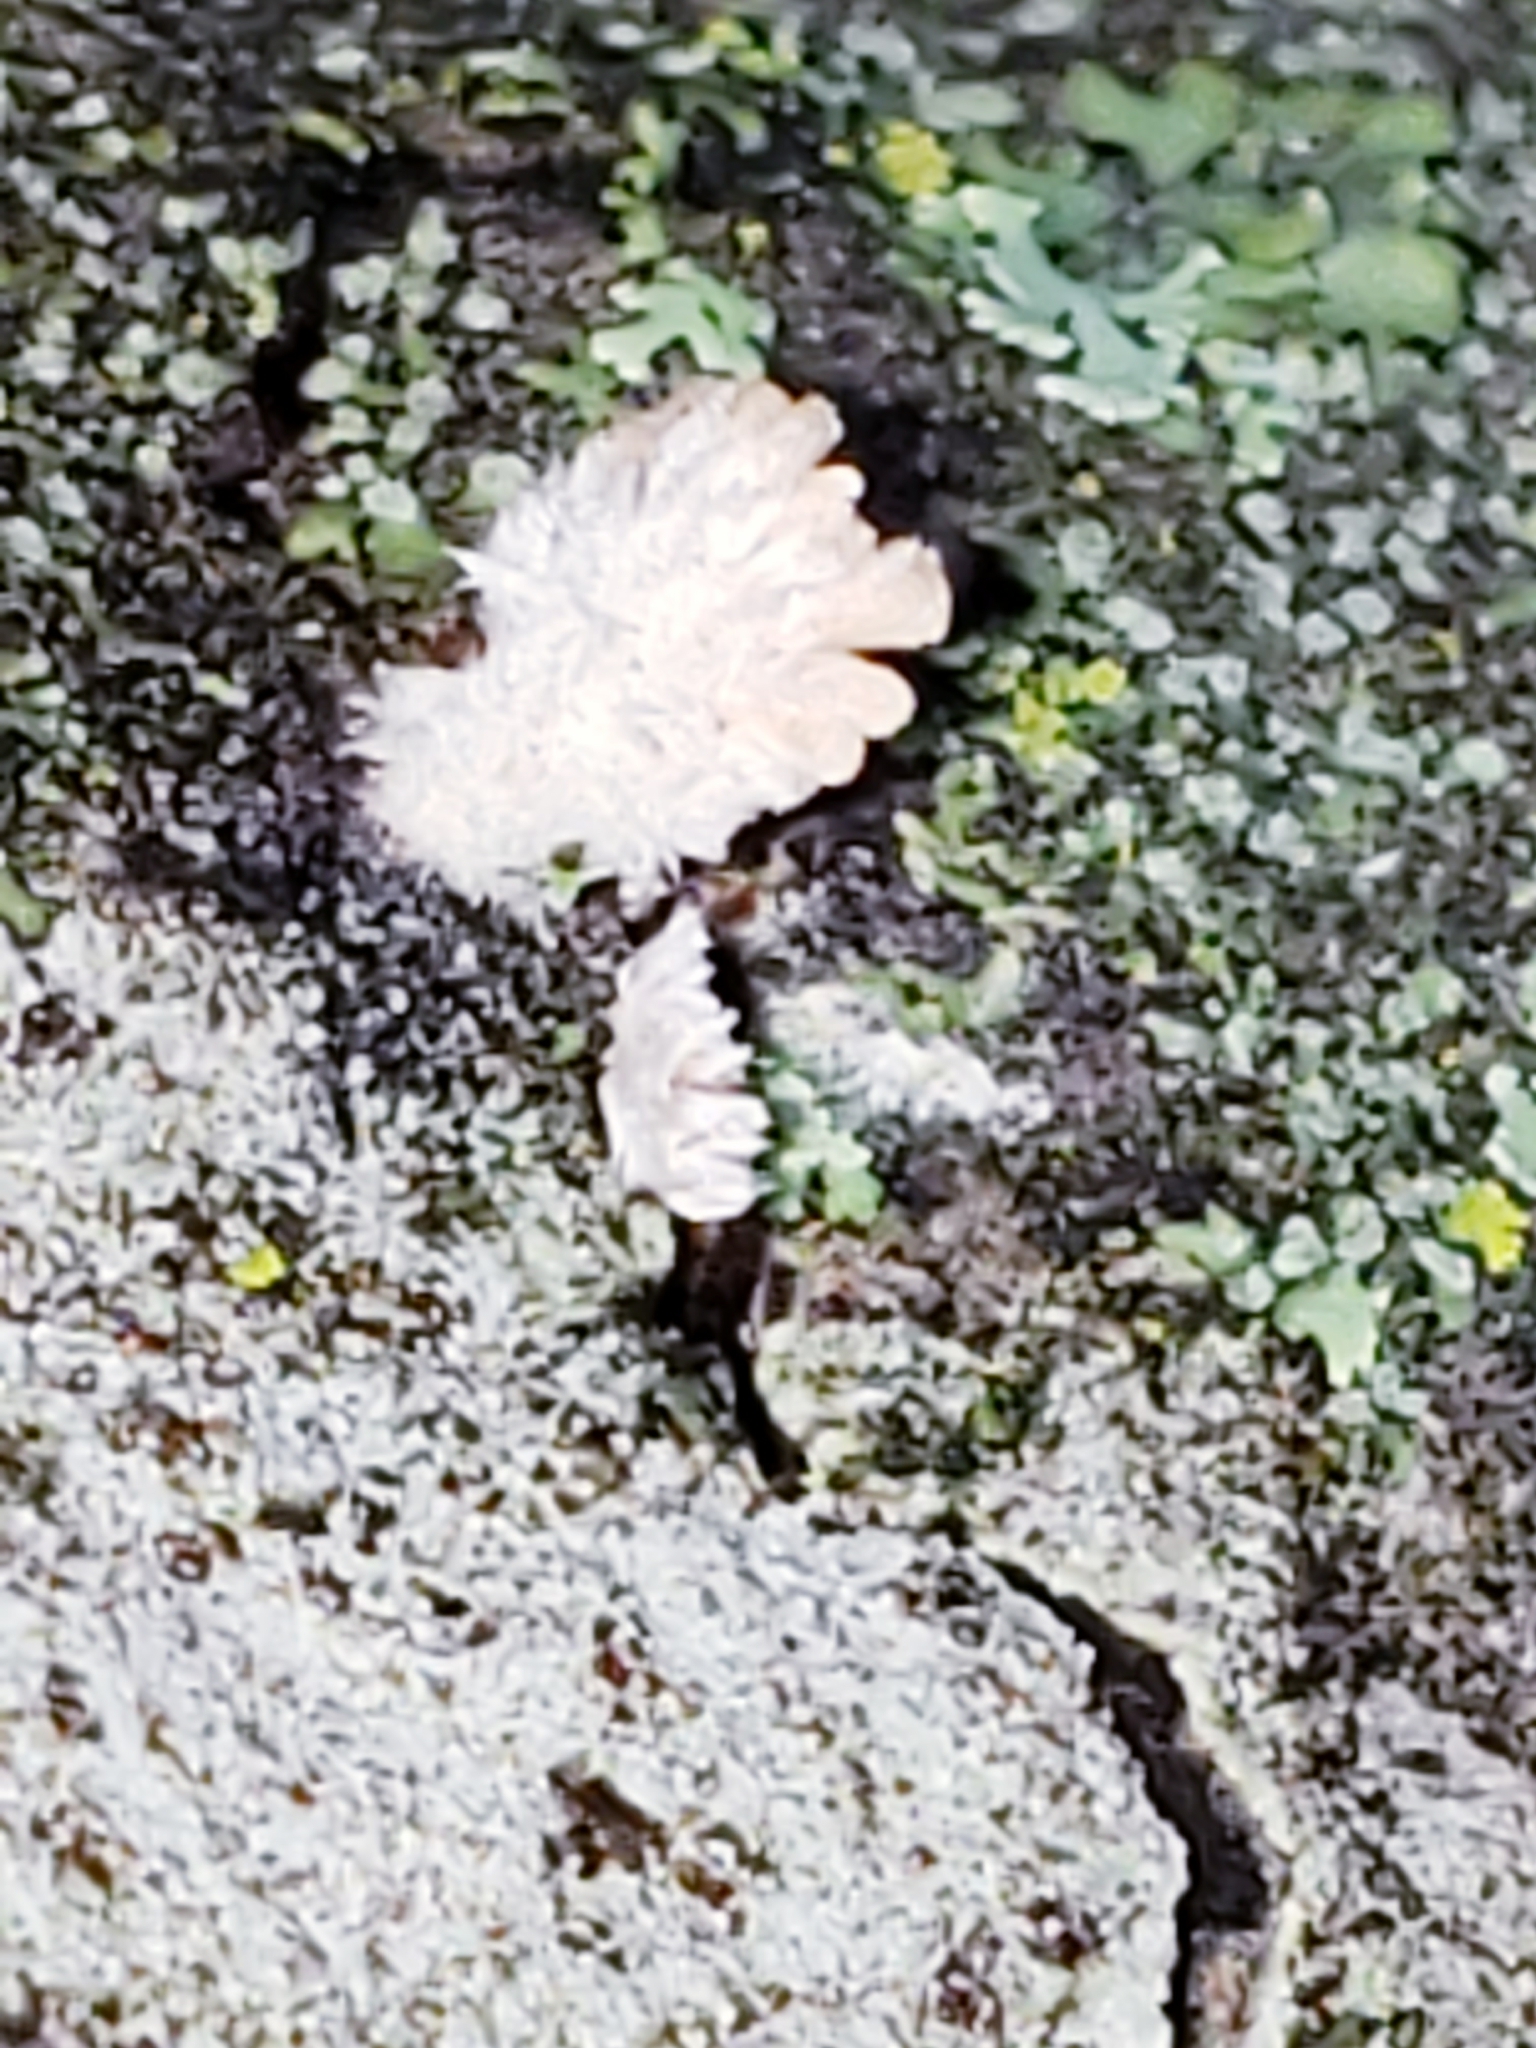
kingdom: Fungi
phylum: Basidiomycota
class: Agaricomycetes
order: Agaricales
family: Schizophyllaceae
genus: Schizophyllum
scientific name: Schizophyllum commune
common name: Common porecrust
